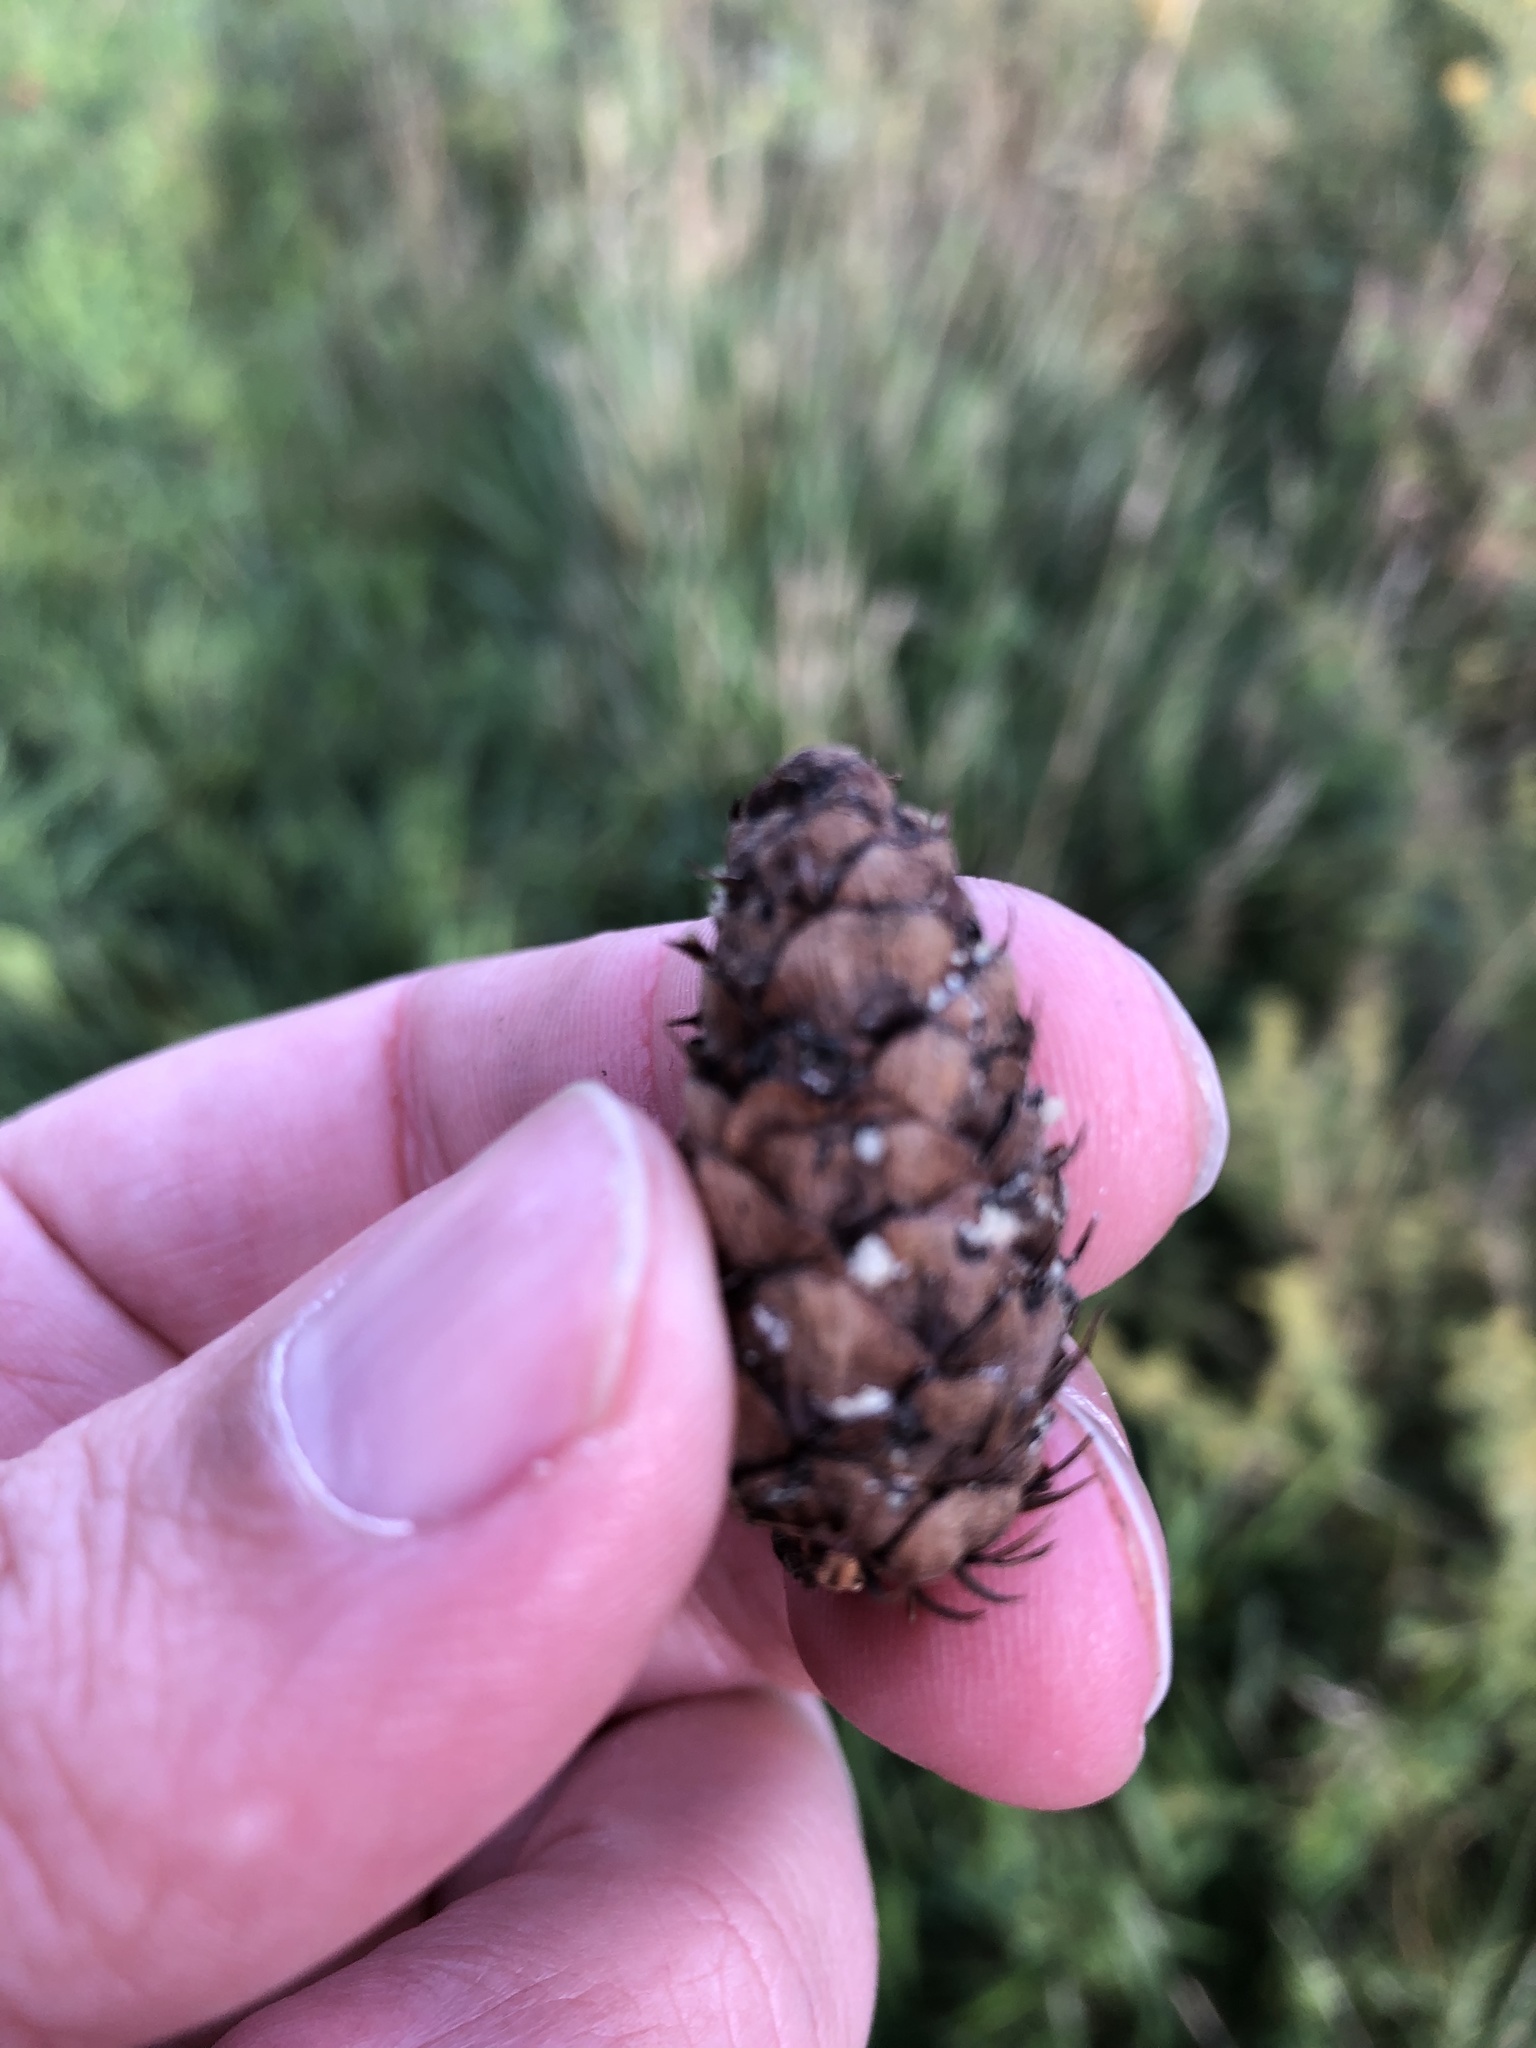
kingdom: Plantae
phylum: Tracheophyta
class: Pinopsida
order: Pinales
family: Pinaceae
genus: Picea
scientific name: Picea glauca
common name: White spruce
